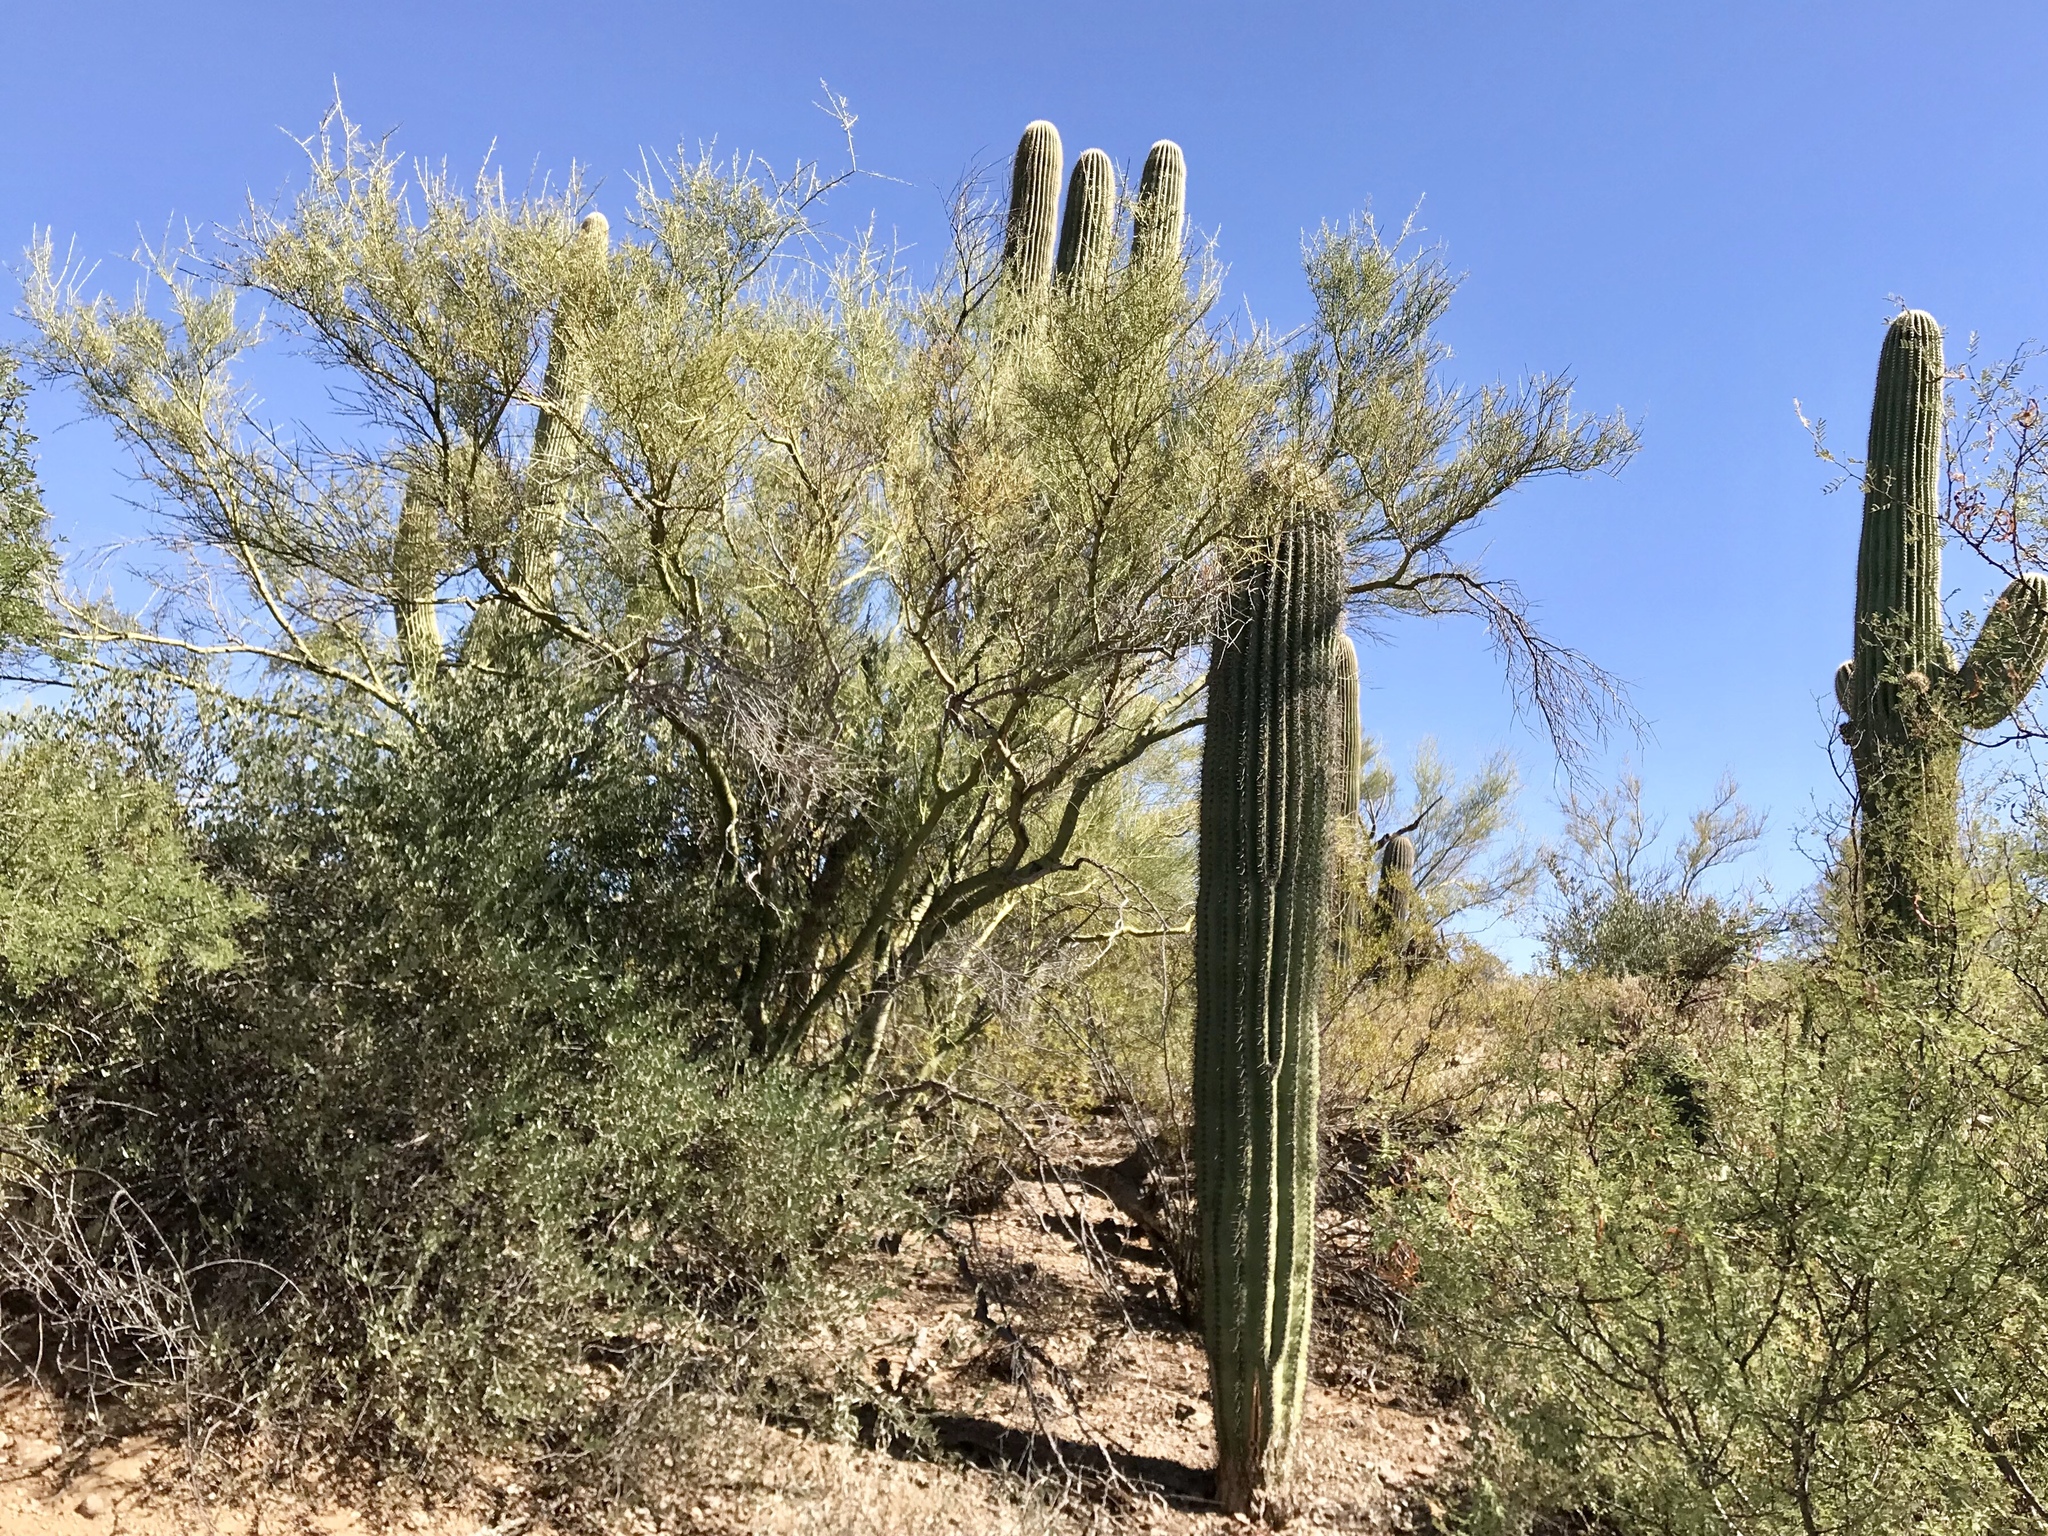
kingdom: Plantae
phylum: Tracheophyta
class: Magnoliopsida
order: Fabales
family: Fabaceae
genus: Parkinsonia
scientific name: Parkinsonia microphylla
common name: Yellow paloverde
